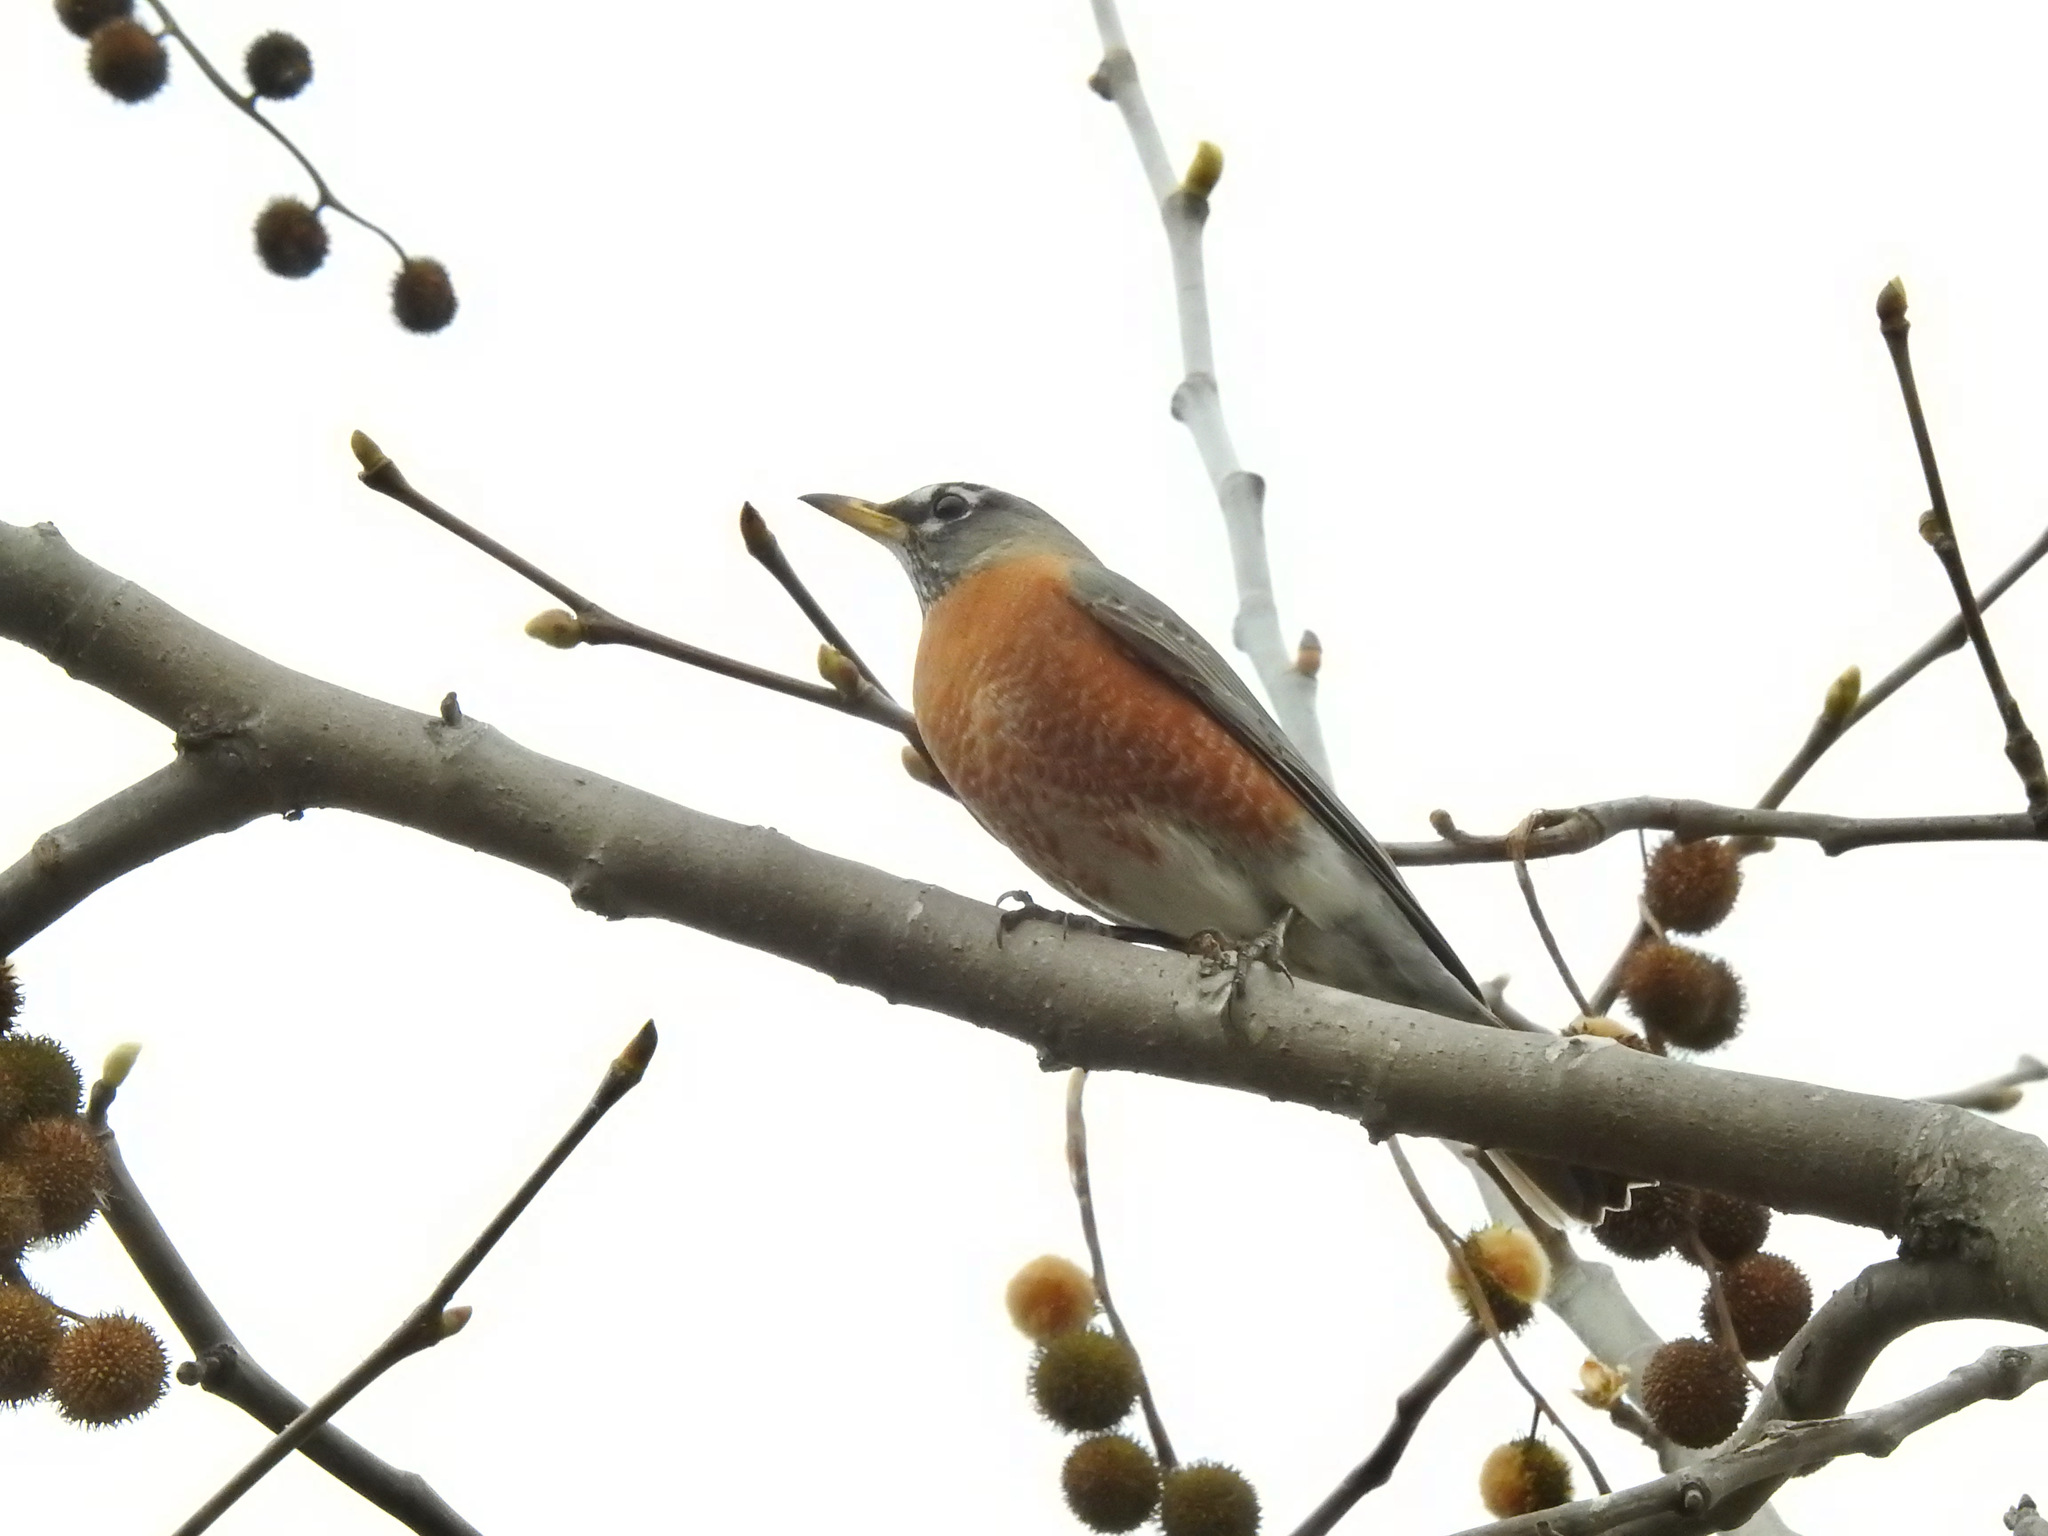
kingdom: Animalia
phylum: Chordata
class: Aves
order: Passeriformes
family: Turdidae
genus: Turdus
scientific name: Turdus migratorius
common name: American robin
